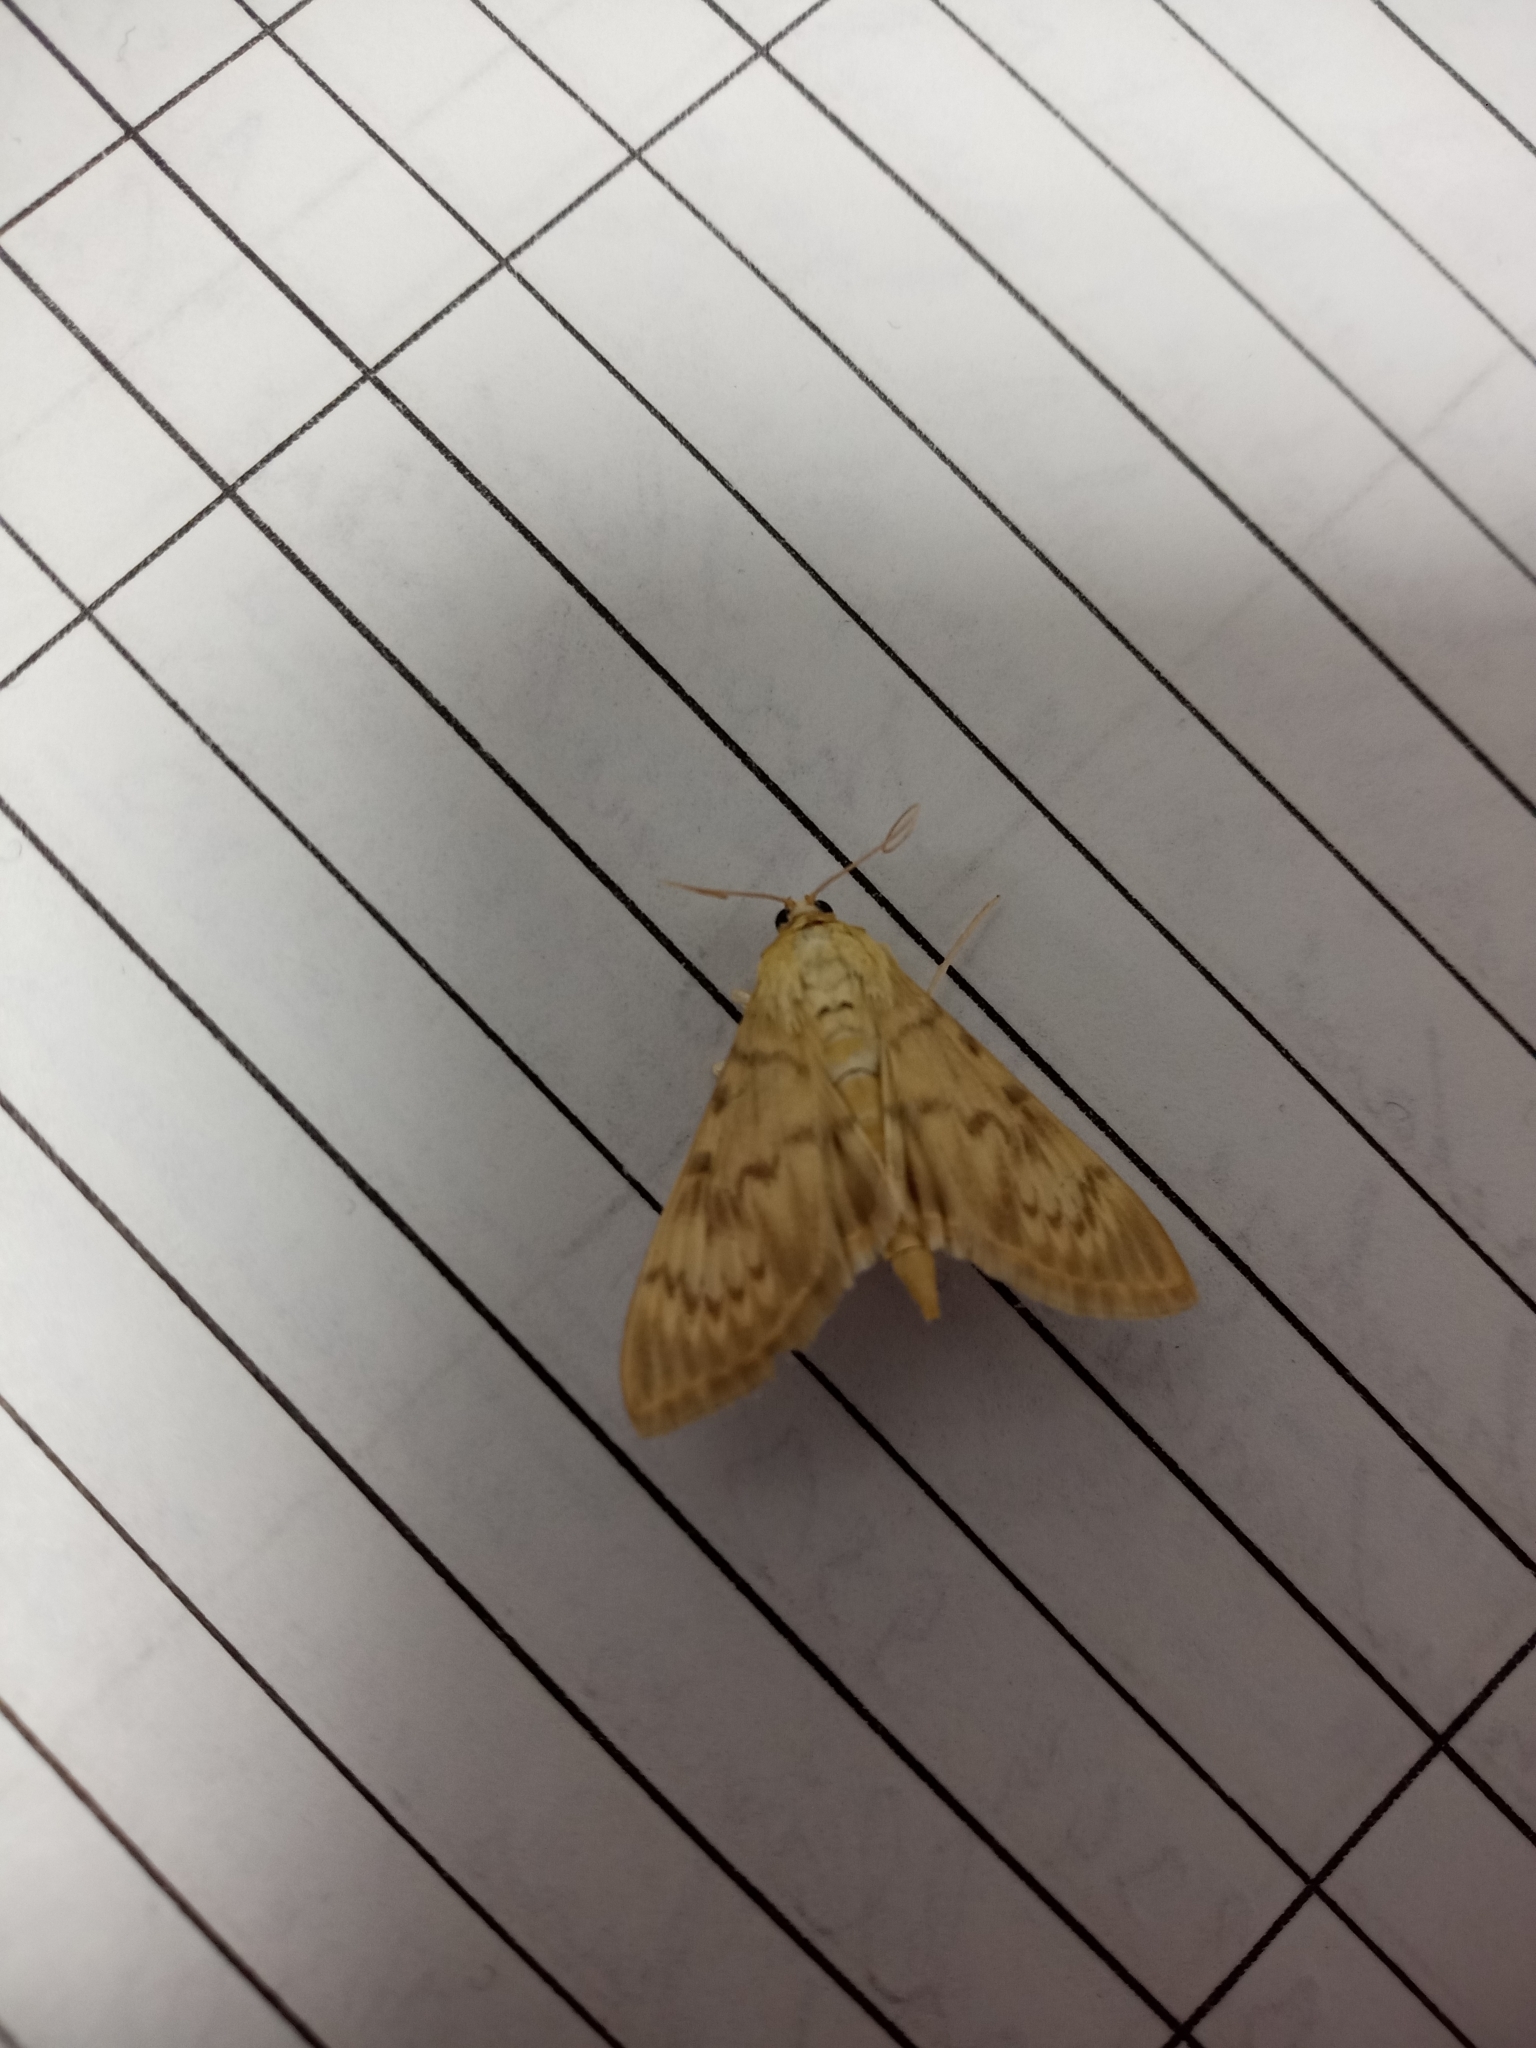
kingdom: Animalia
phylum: Arthropoda
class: Insecta
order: Lepidoptera
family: Crambidae
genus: Patania
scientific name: Patania ruralis
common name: Mother of pearl
